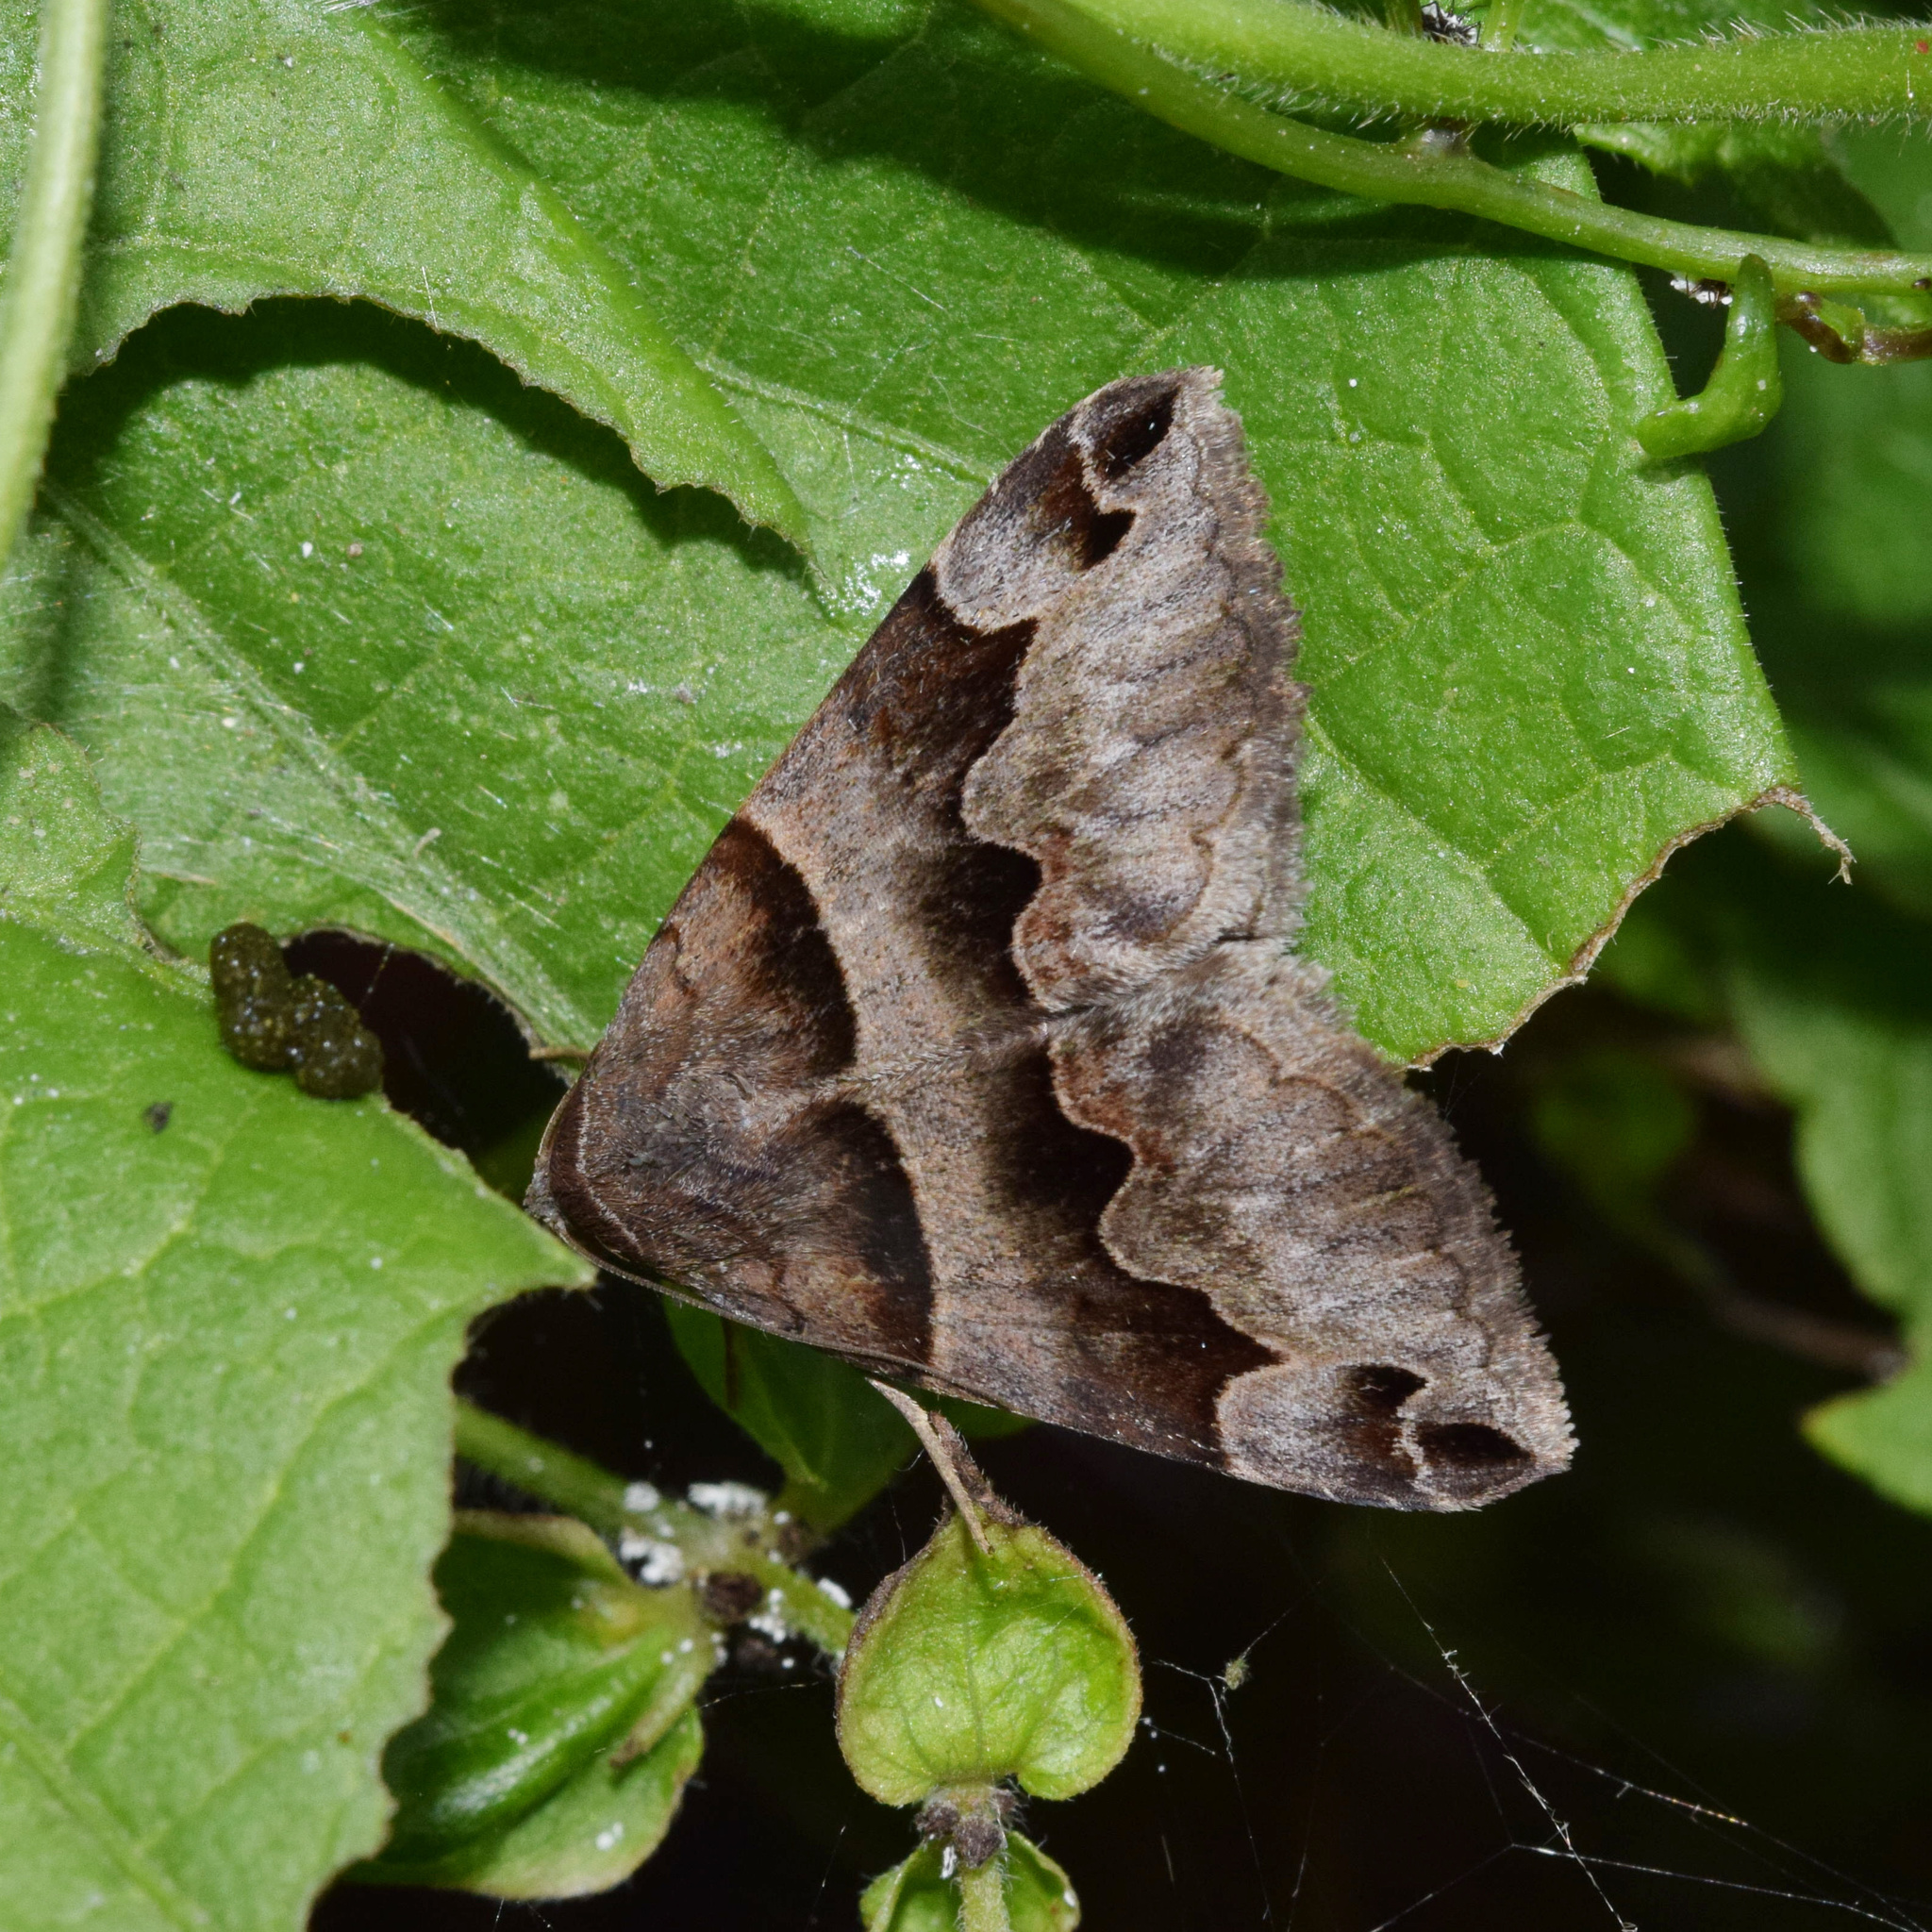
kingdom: Animalia
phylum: Arthropoda
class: Insecta
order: Lepidoptera
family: Erebidae
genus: Dysgonia
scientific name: Dysgonia angularis
